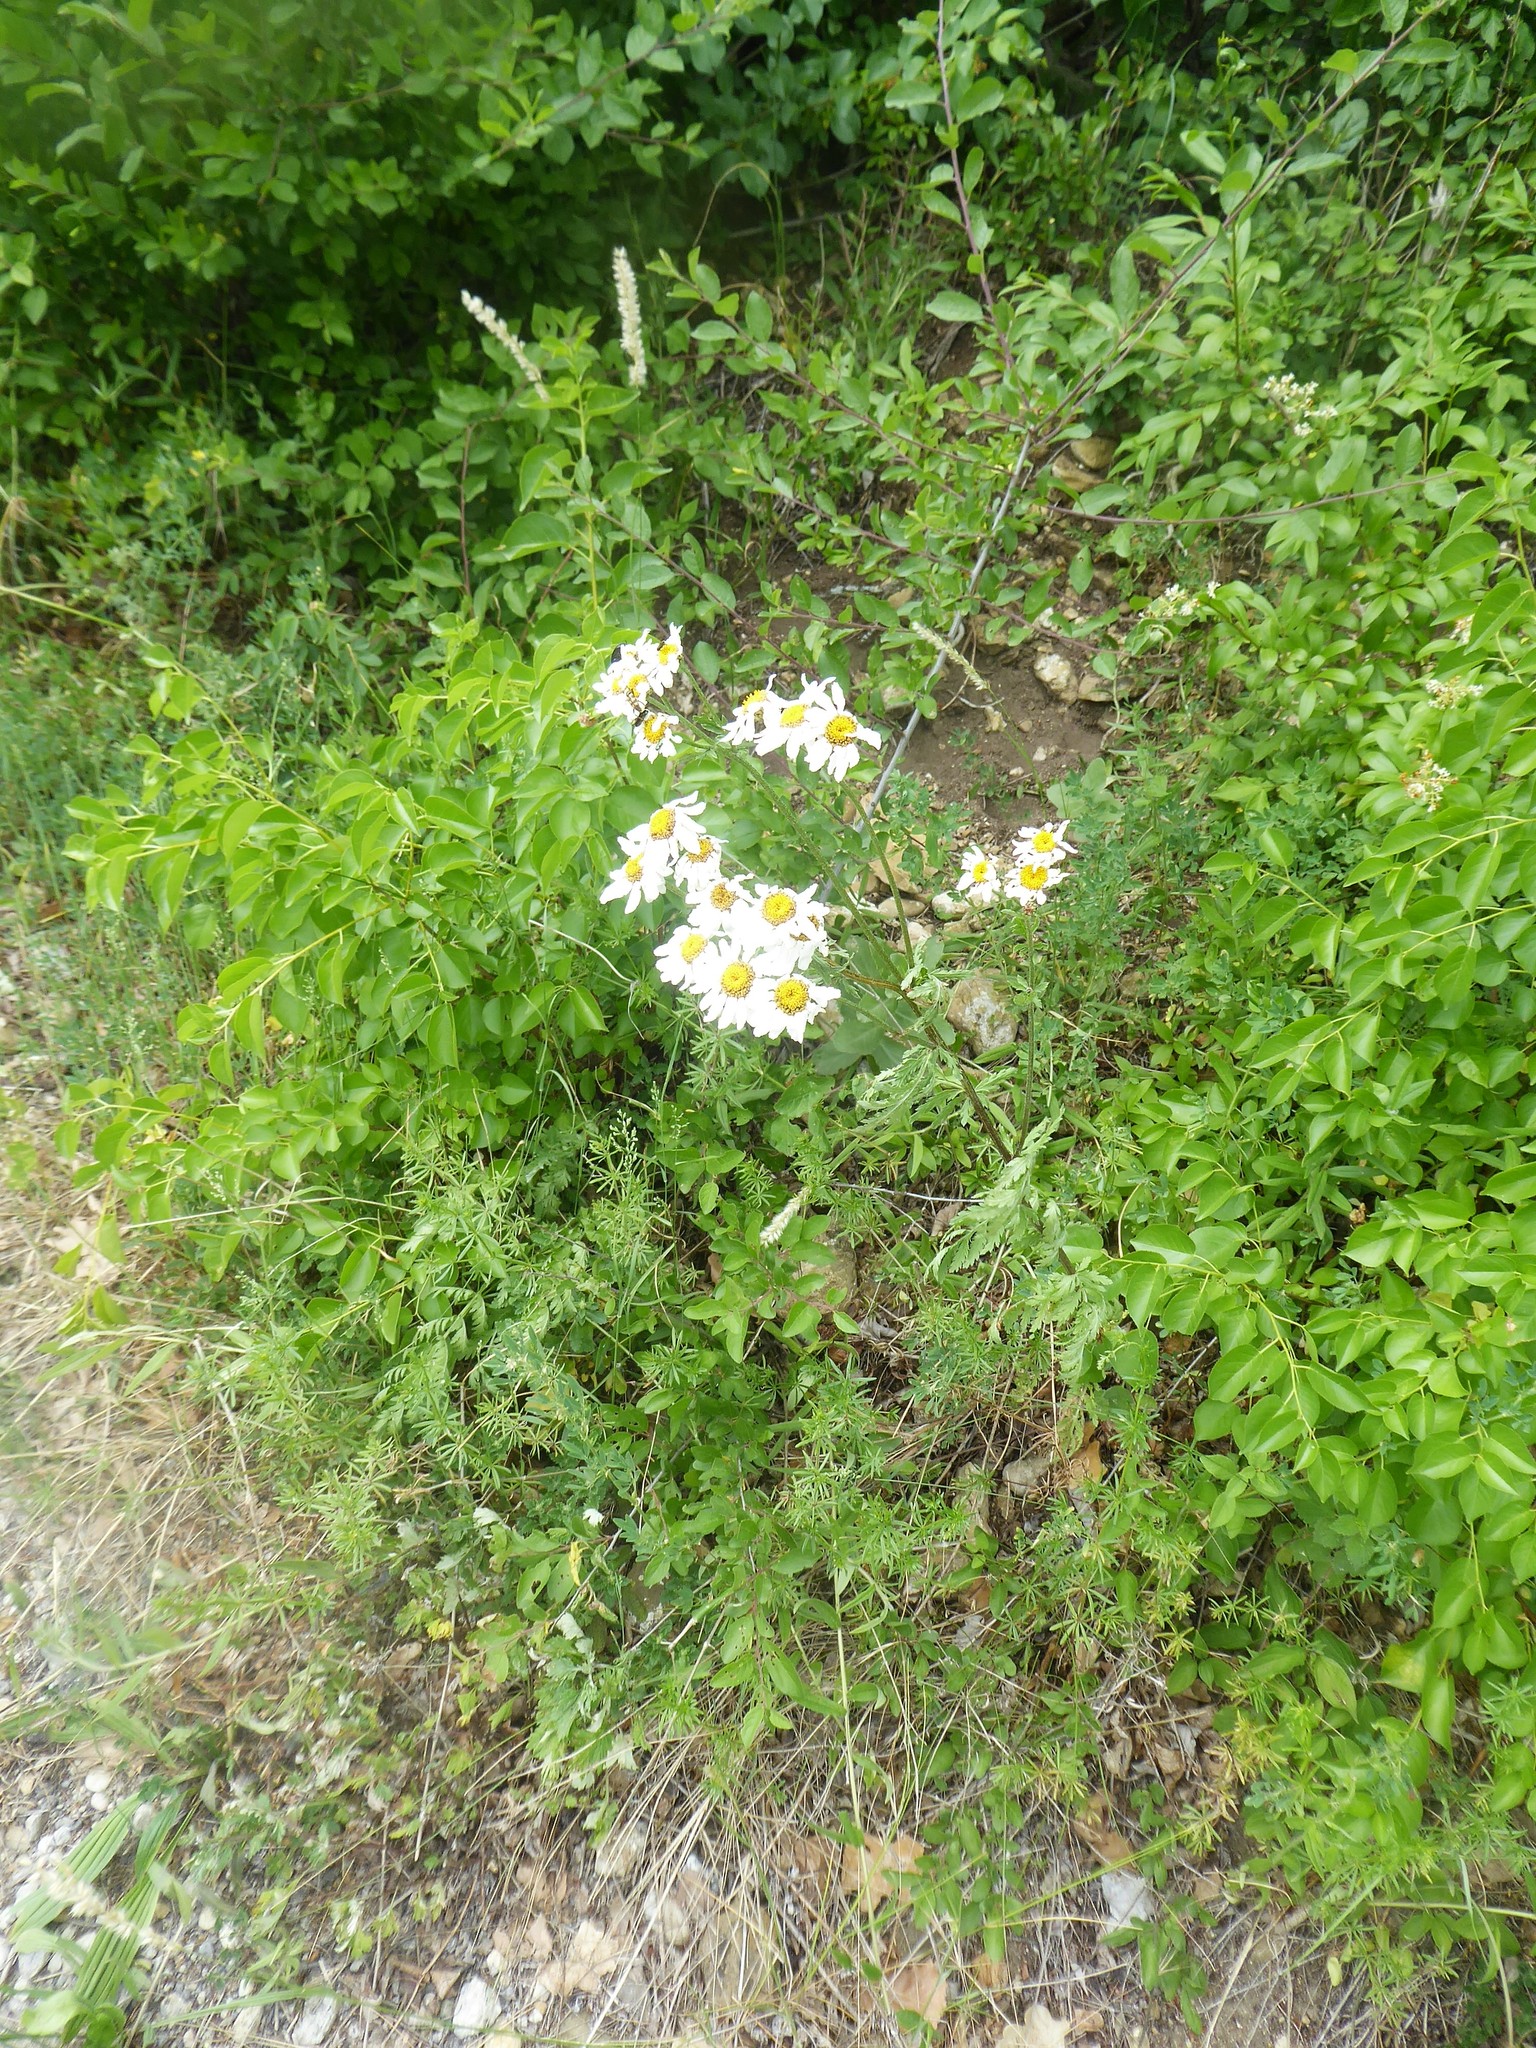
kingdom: Plantae
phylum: Tracheophyta
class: Magnoliopsida
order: Asterales
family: Asteraceae
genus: Tanacetum
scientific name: Tanacetum corymbosum
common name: Scentless feverfew
